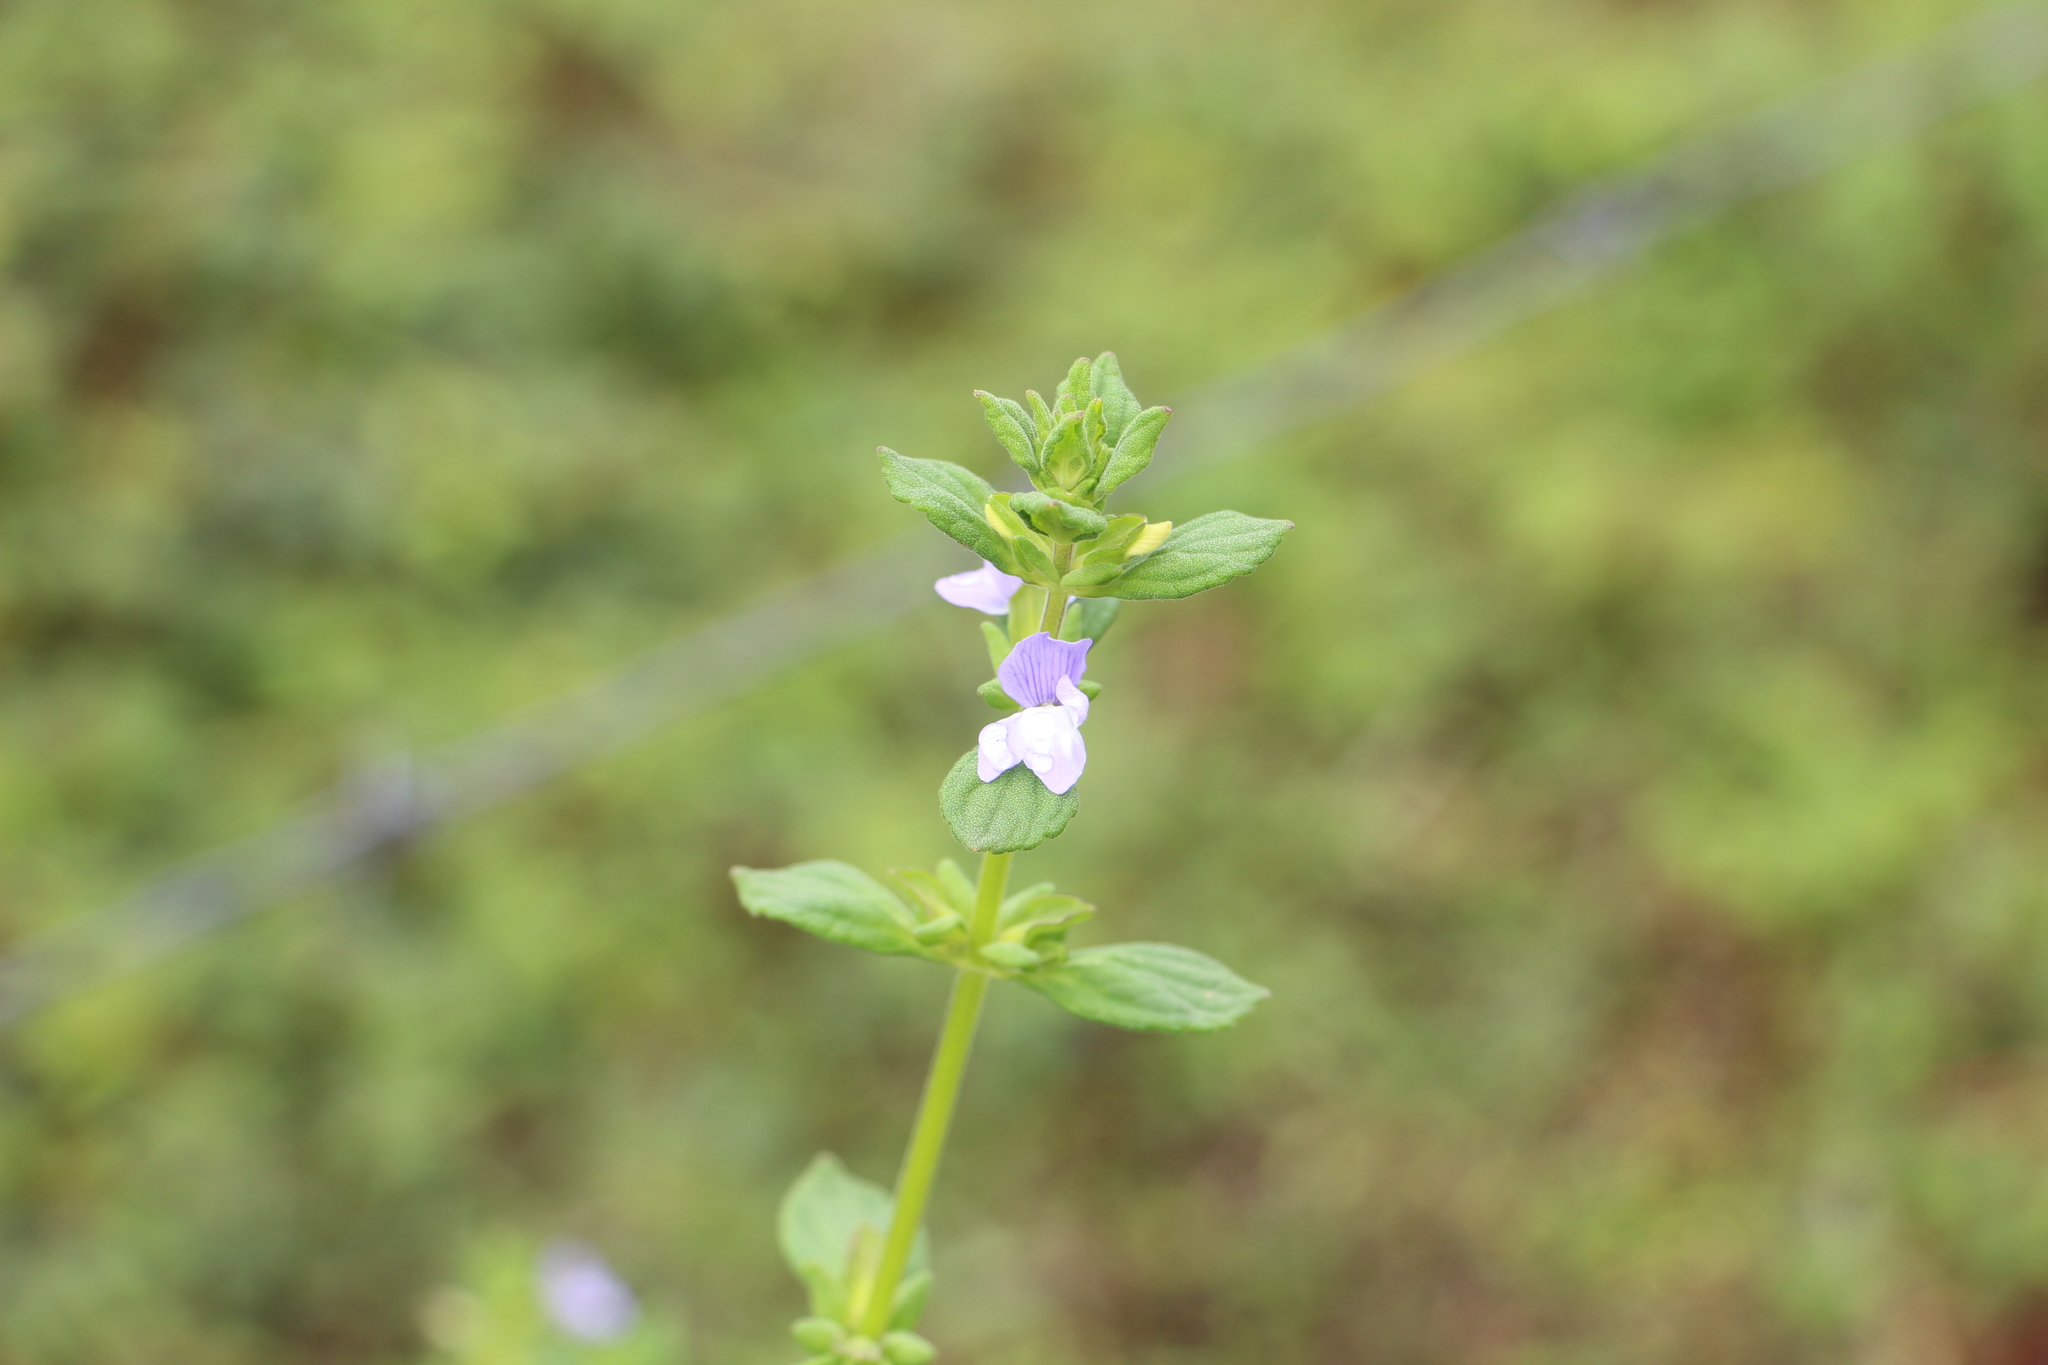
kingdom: Plantae
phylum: Tracheophyta
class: Magnoliopsida
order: Lamiales
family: Plantaginaceae
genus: Matourea
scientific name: Matourea erecta
